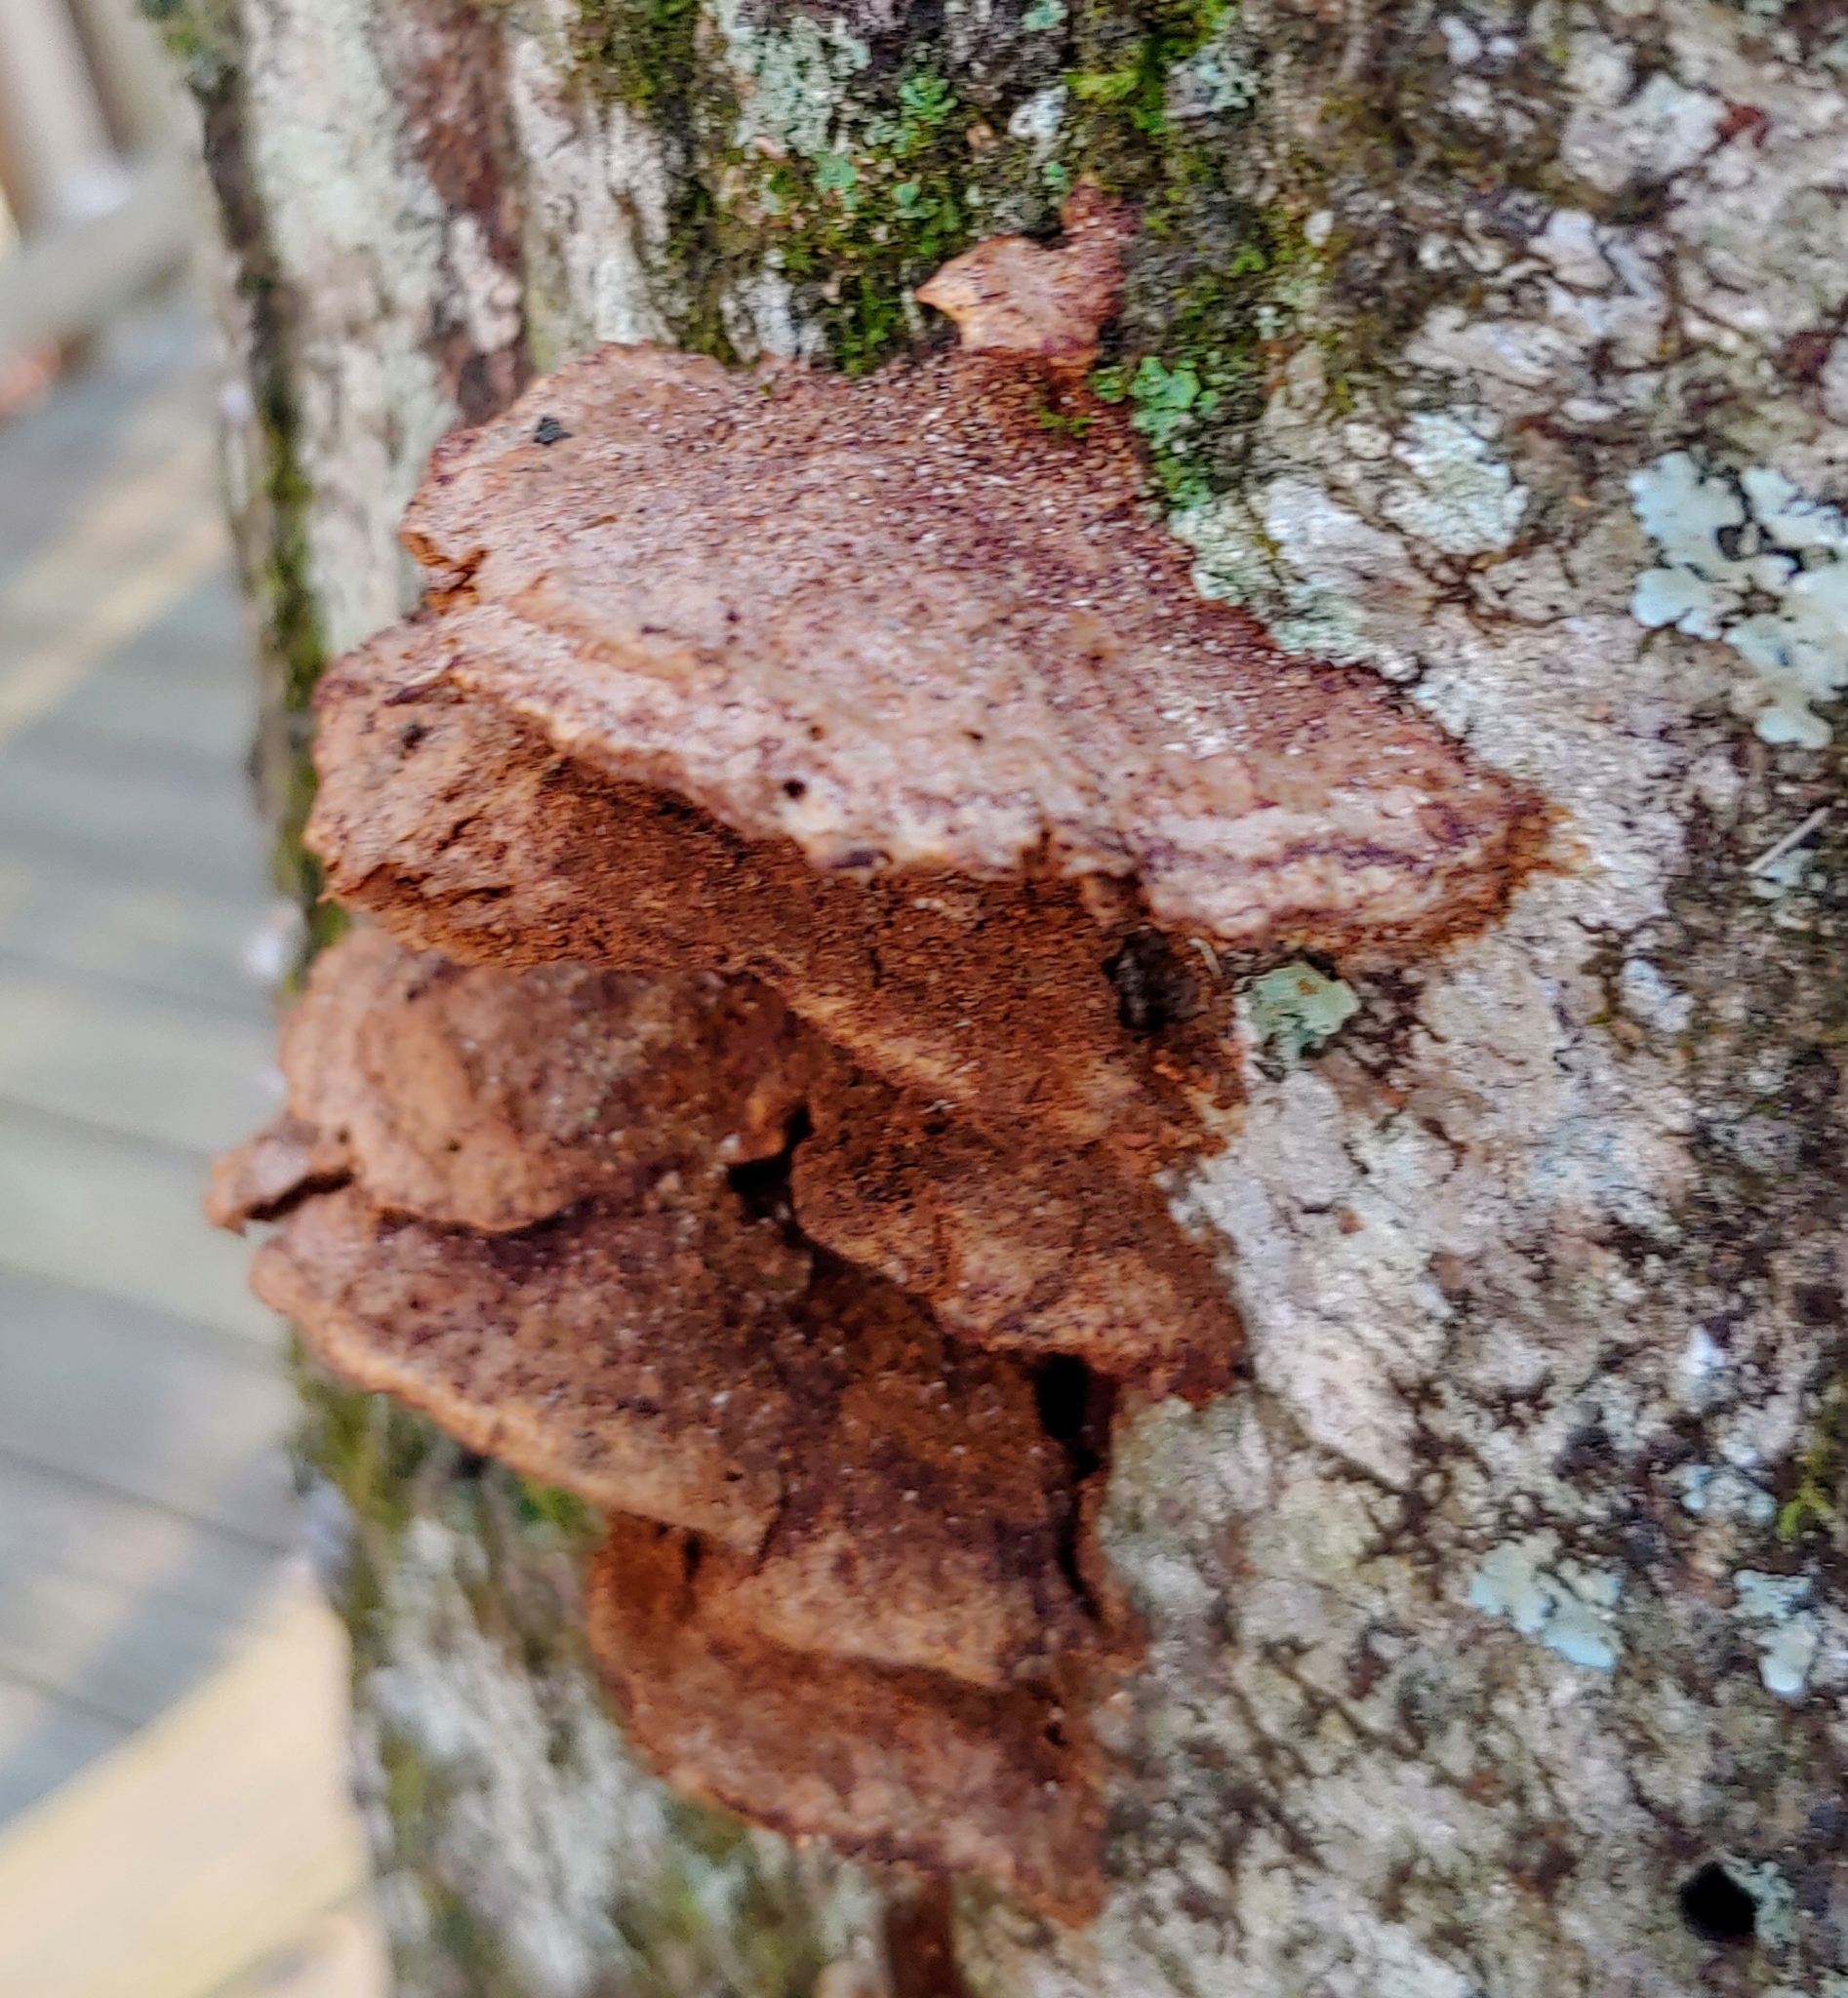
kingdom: Fungi
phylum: Basidiomycota
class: Agaricomycetes
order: Hymenochaetales
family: Hymenochaetaceae
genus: Phellinus
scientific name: Phellinus gilvus
